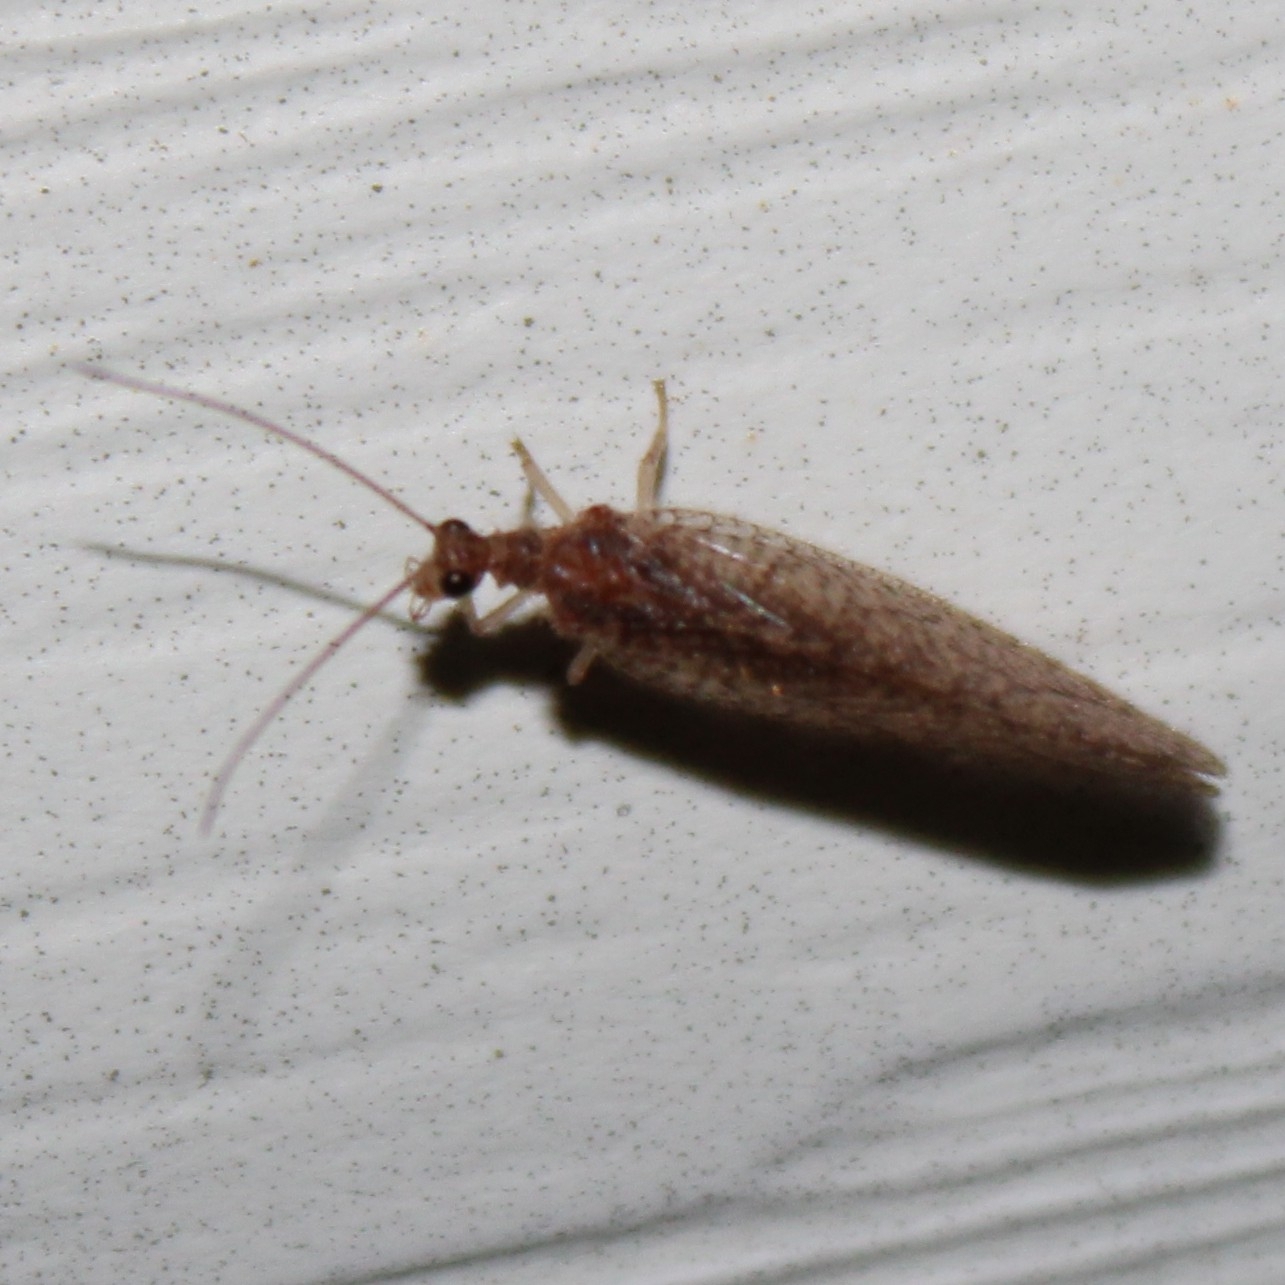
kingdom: Animalia
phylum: Arthropoda
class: Insecta
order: Neuroptera
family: Hemerobiidae
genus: Micromus
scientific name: Micromus posticus
